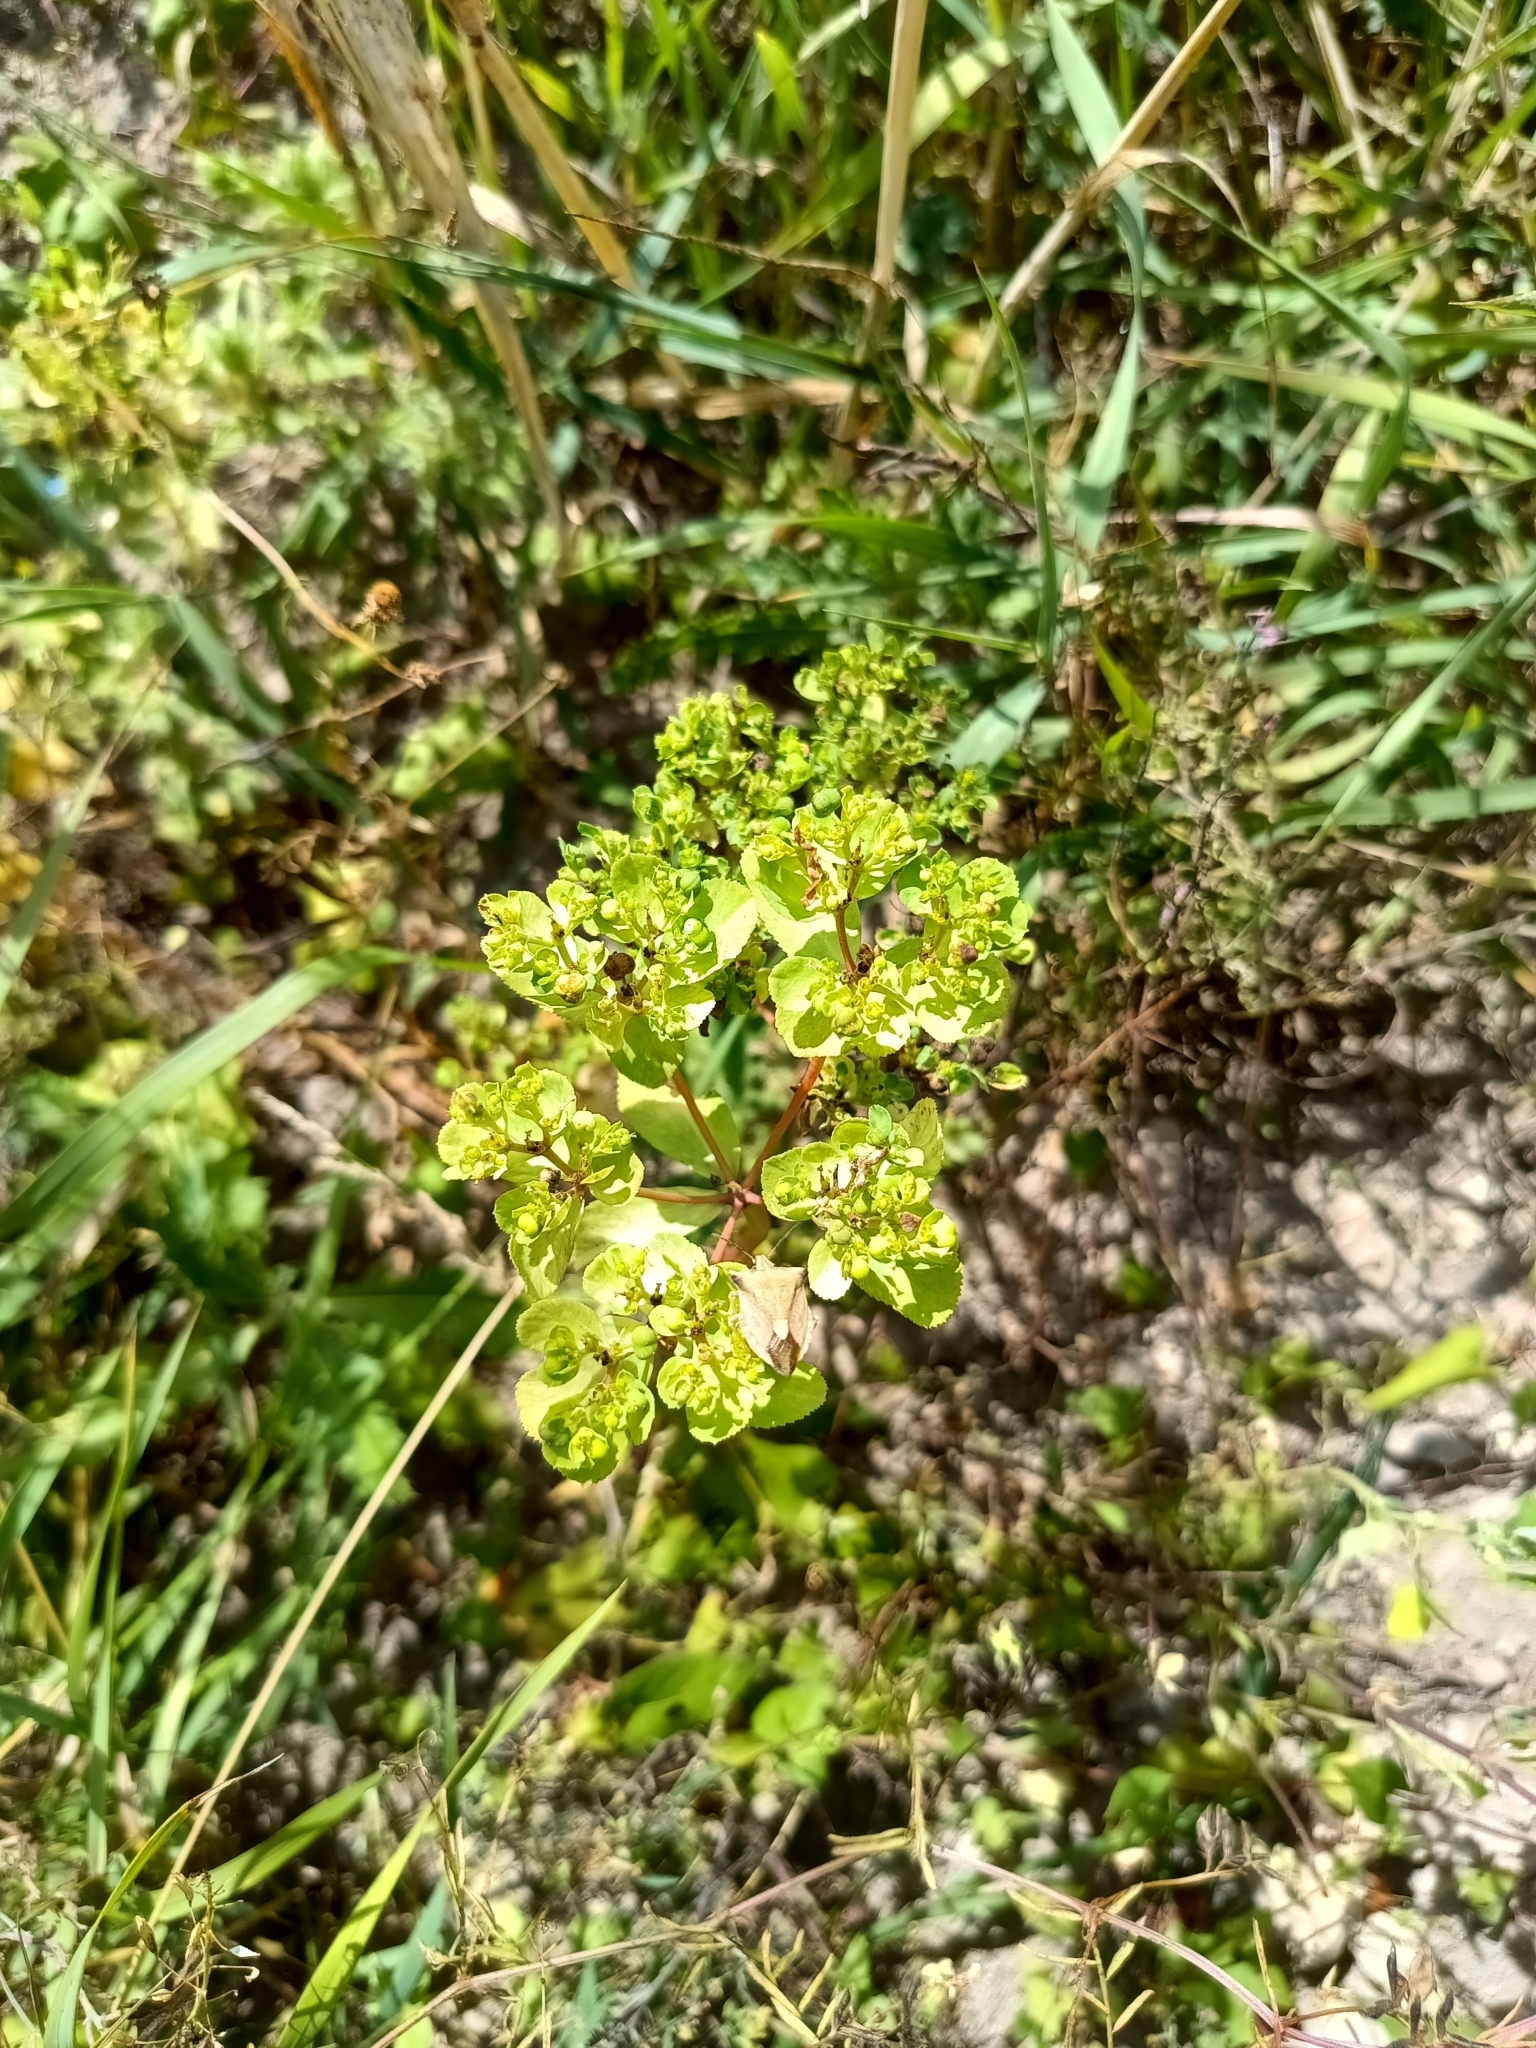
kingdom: Plantae
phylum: Tracheophyta
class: Magnoliopsida
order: Malpighiales
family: Euphorbiaceae
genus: Euphorbia
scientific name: Euphorbia helioscopia
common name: Sun spurge
